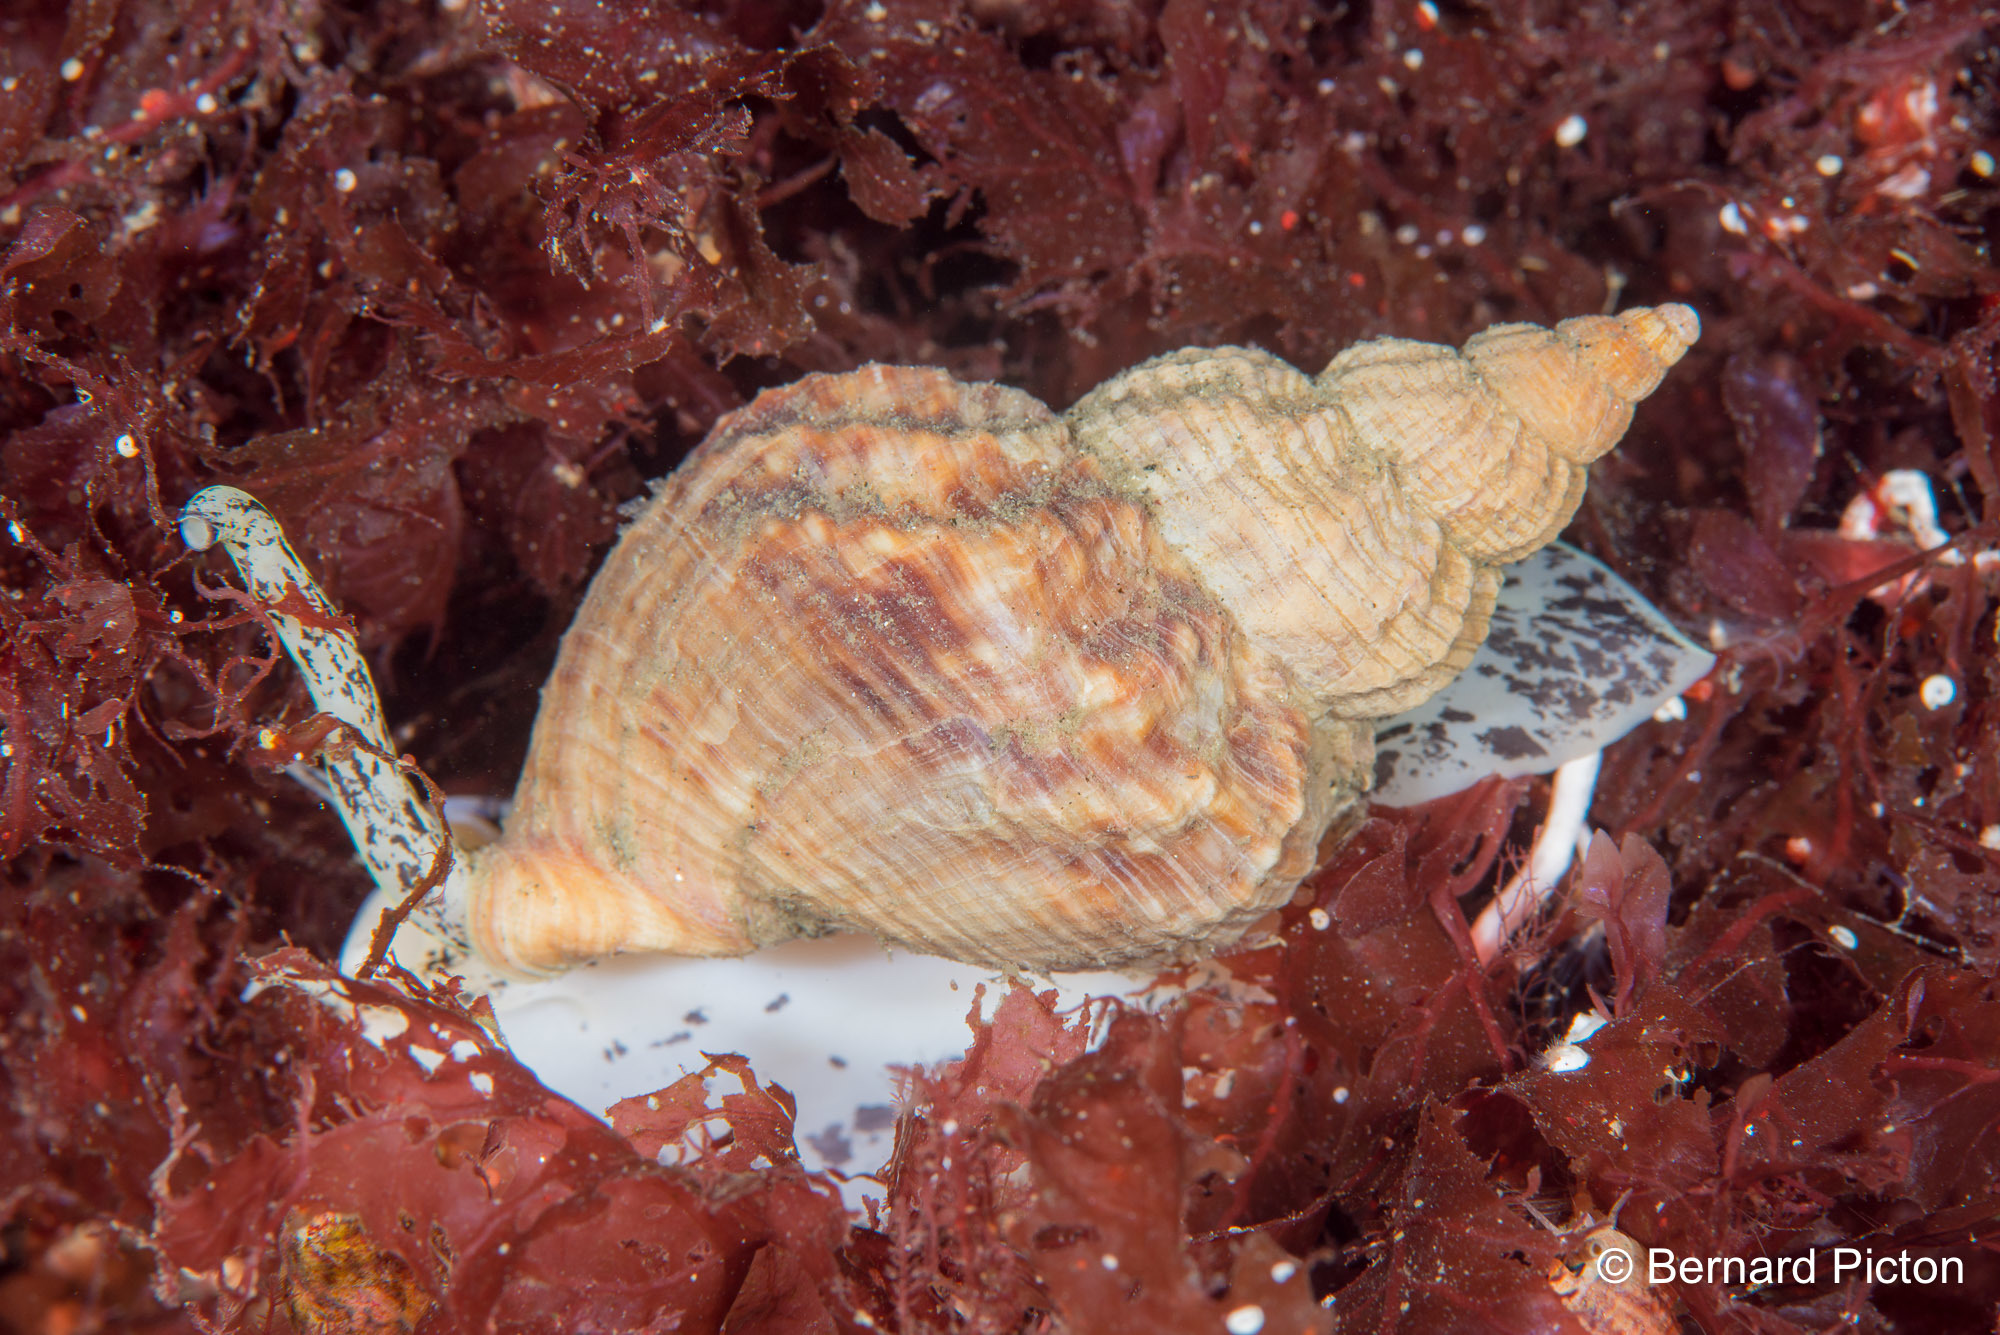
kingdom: Animalia
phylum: Mollusca
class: Gastropoda
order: Neogastropoda
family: Buccinidae
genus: Buccinum
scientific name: Buccinum undatum
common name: Common whelk
